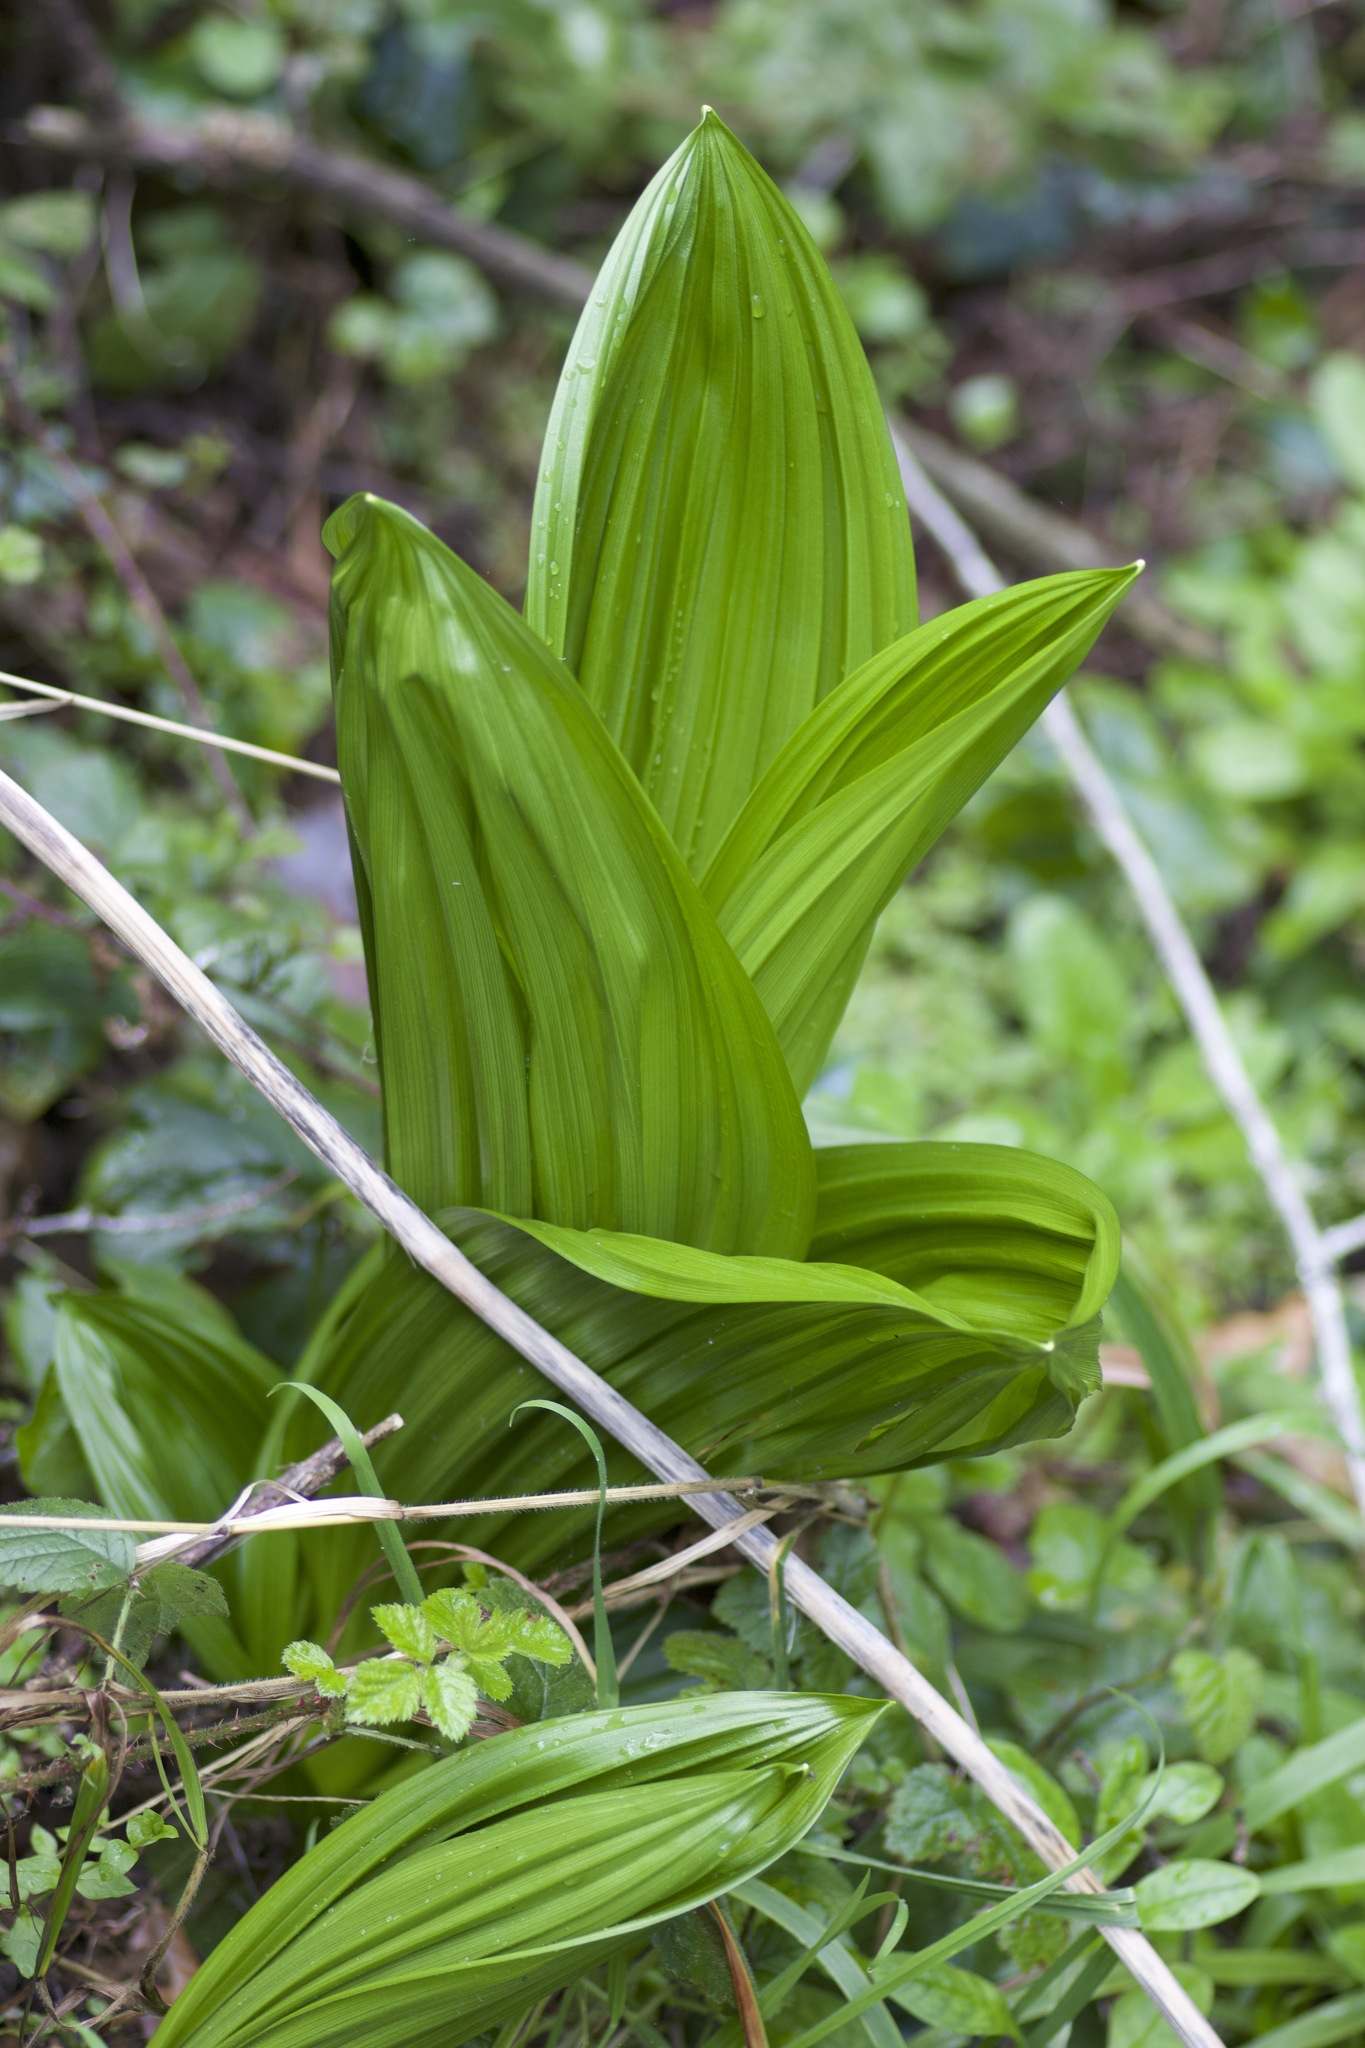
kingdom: Plantae
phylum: Tracheophyta
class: Liliopsida
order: Liliales
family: Melanthiaceae
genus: Veratrum
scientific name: Veratrum fimbriatum
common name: Fringe false hellobore
